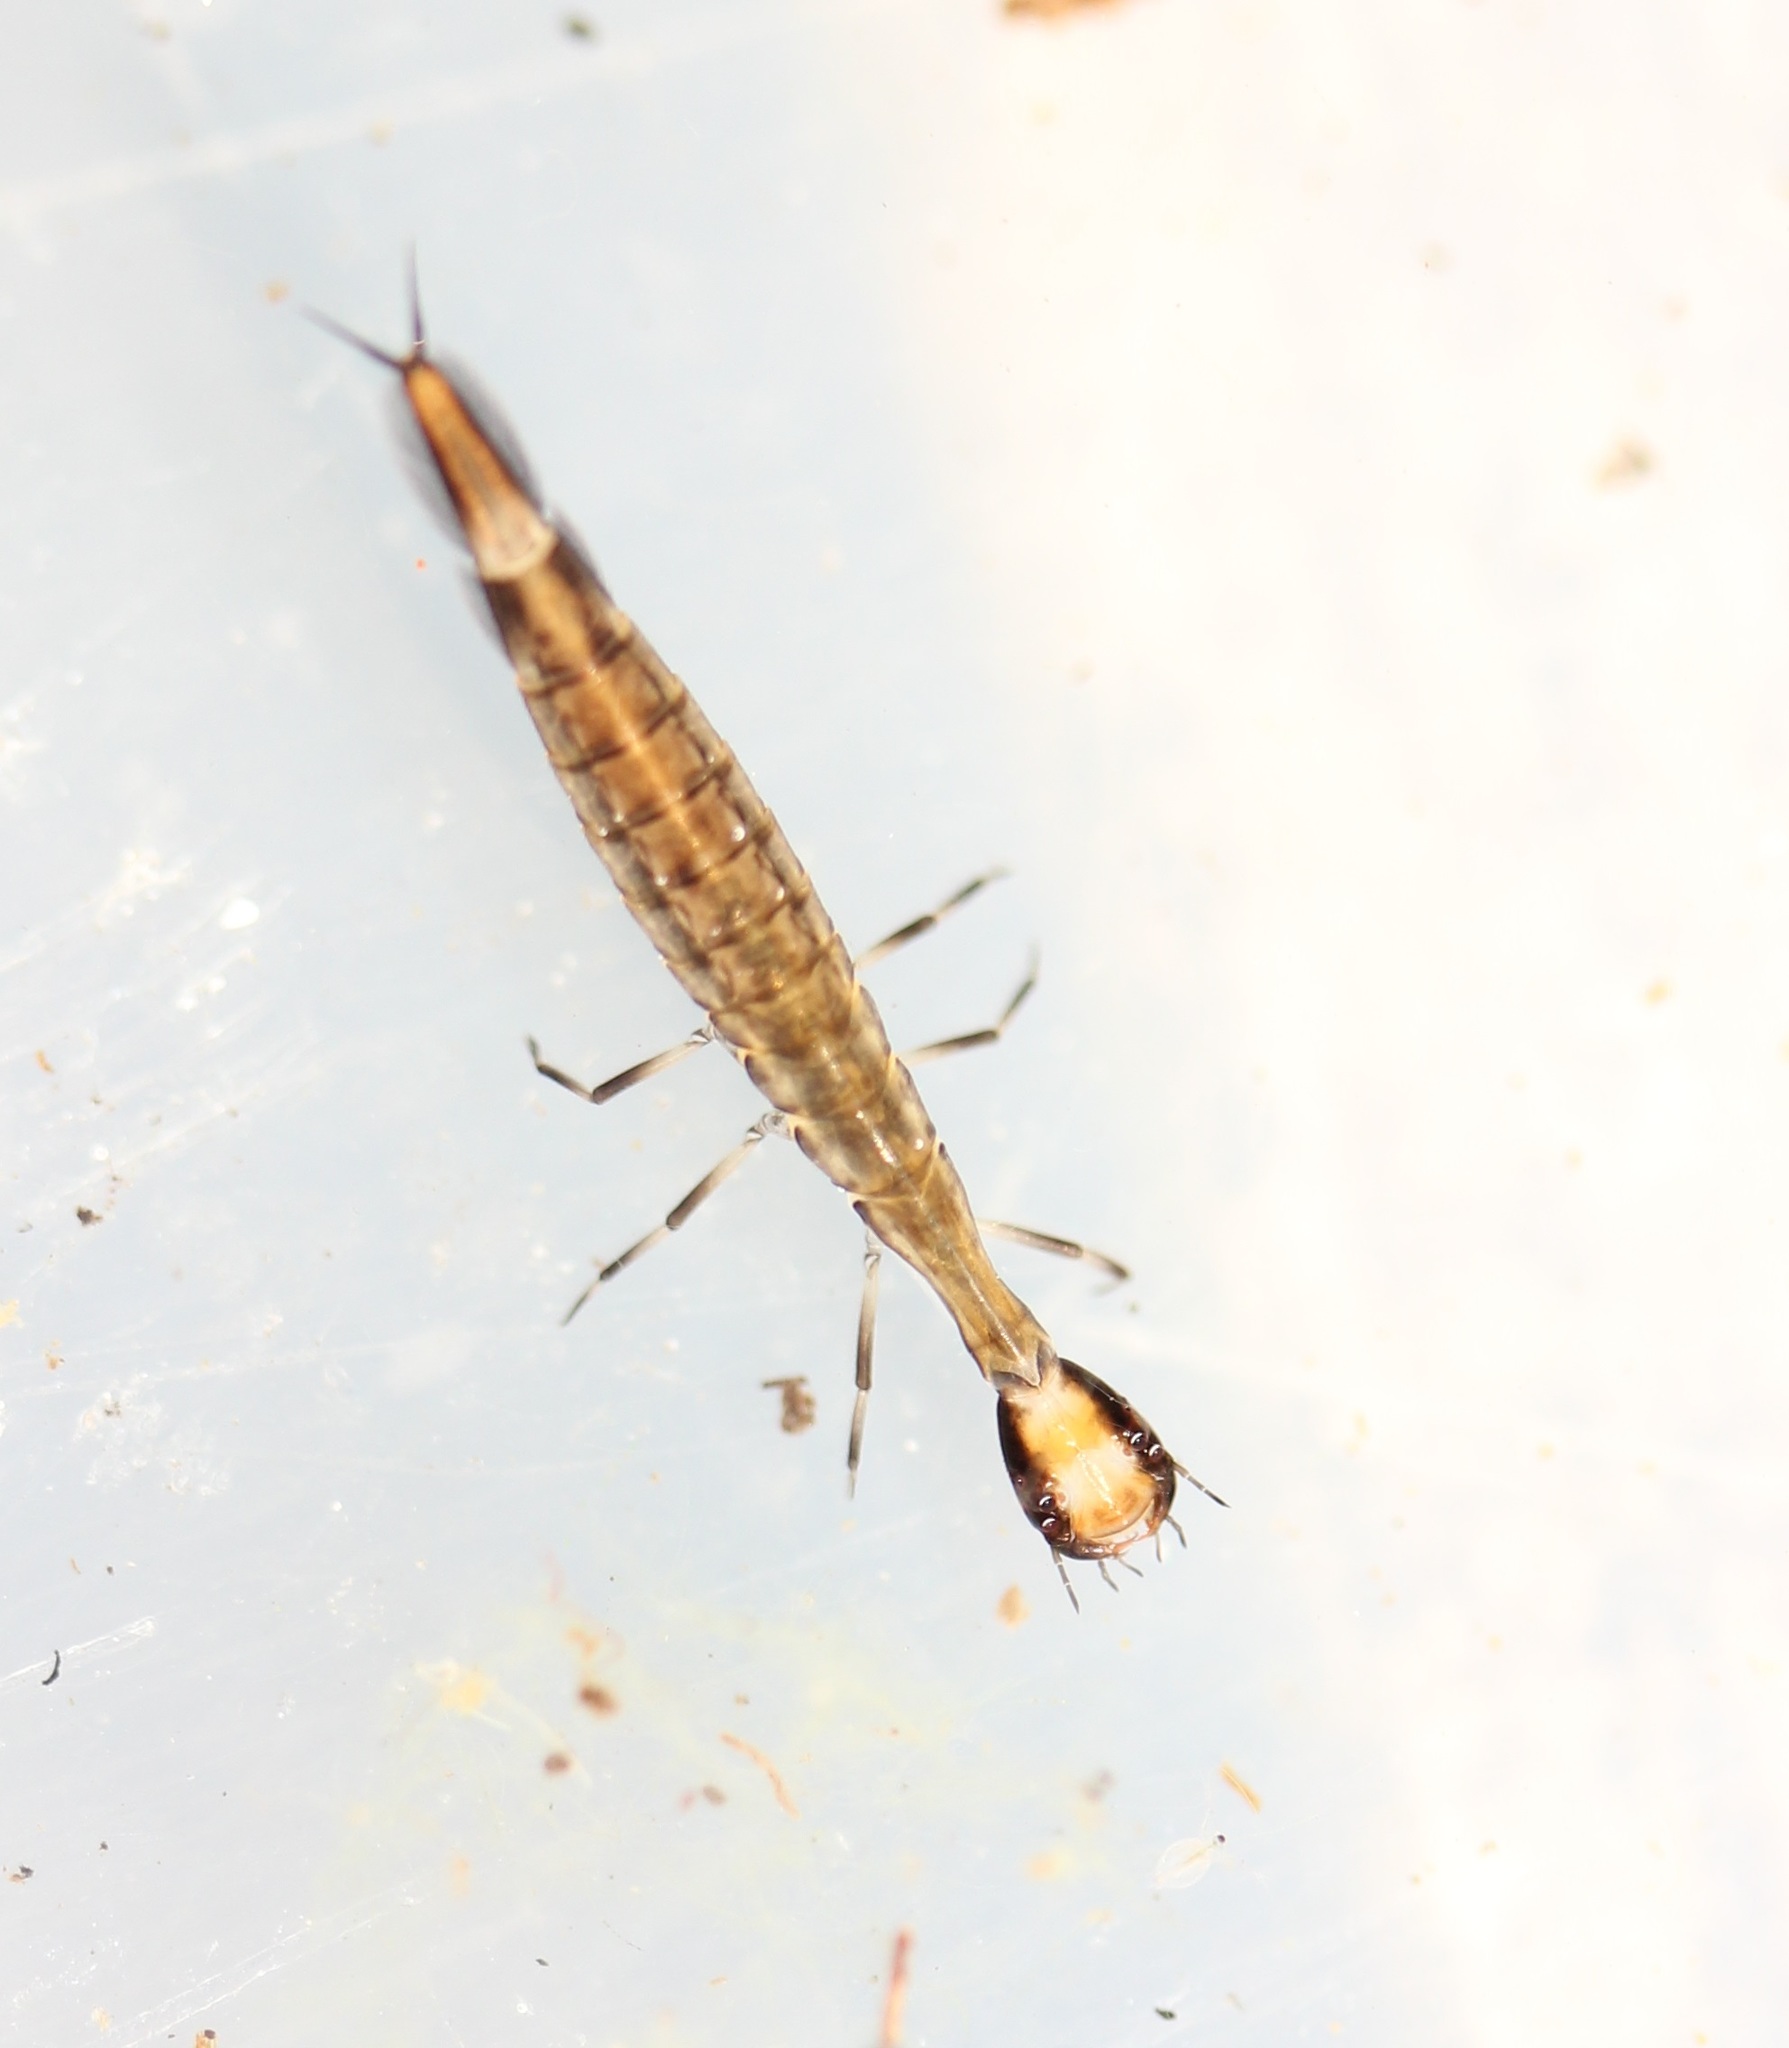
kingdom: Animalia
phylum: Arthropoda
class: Insecta
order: Coleoptera
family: Dytiscidae
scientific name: Dytiscidae
